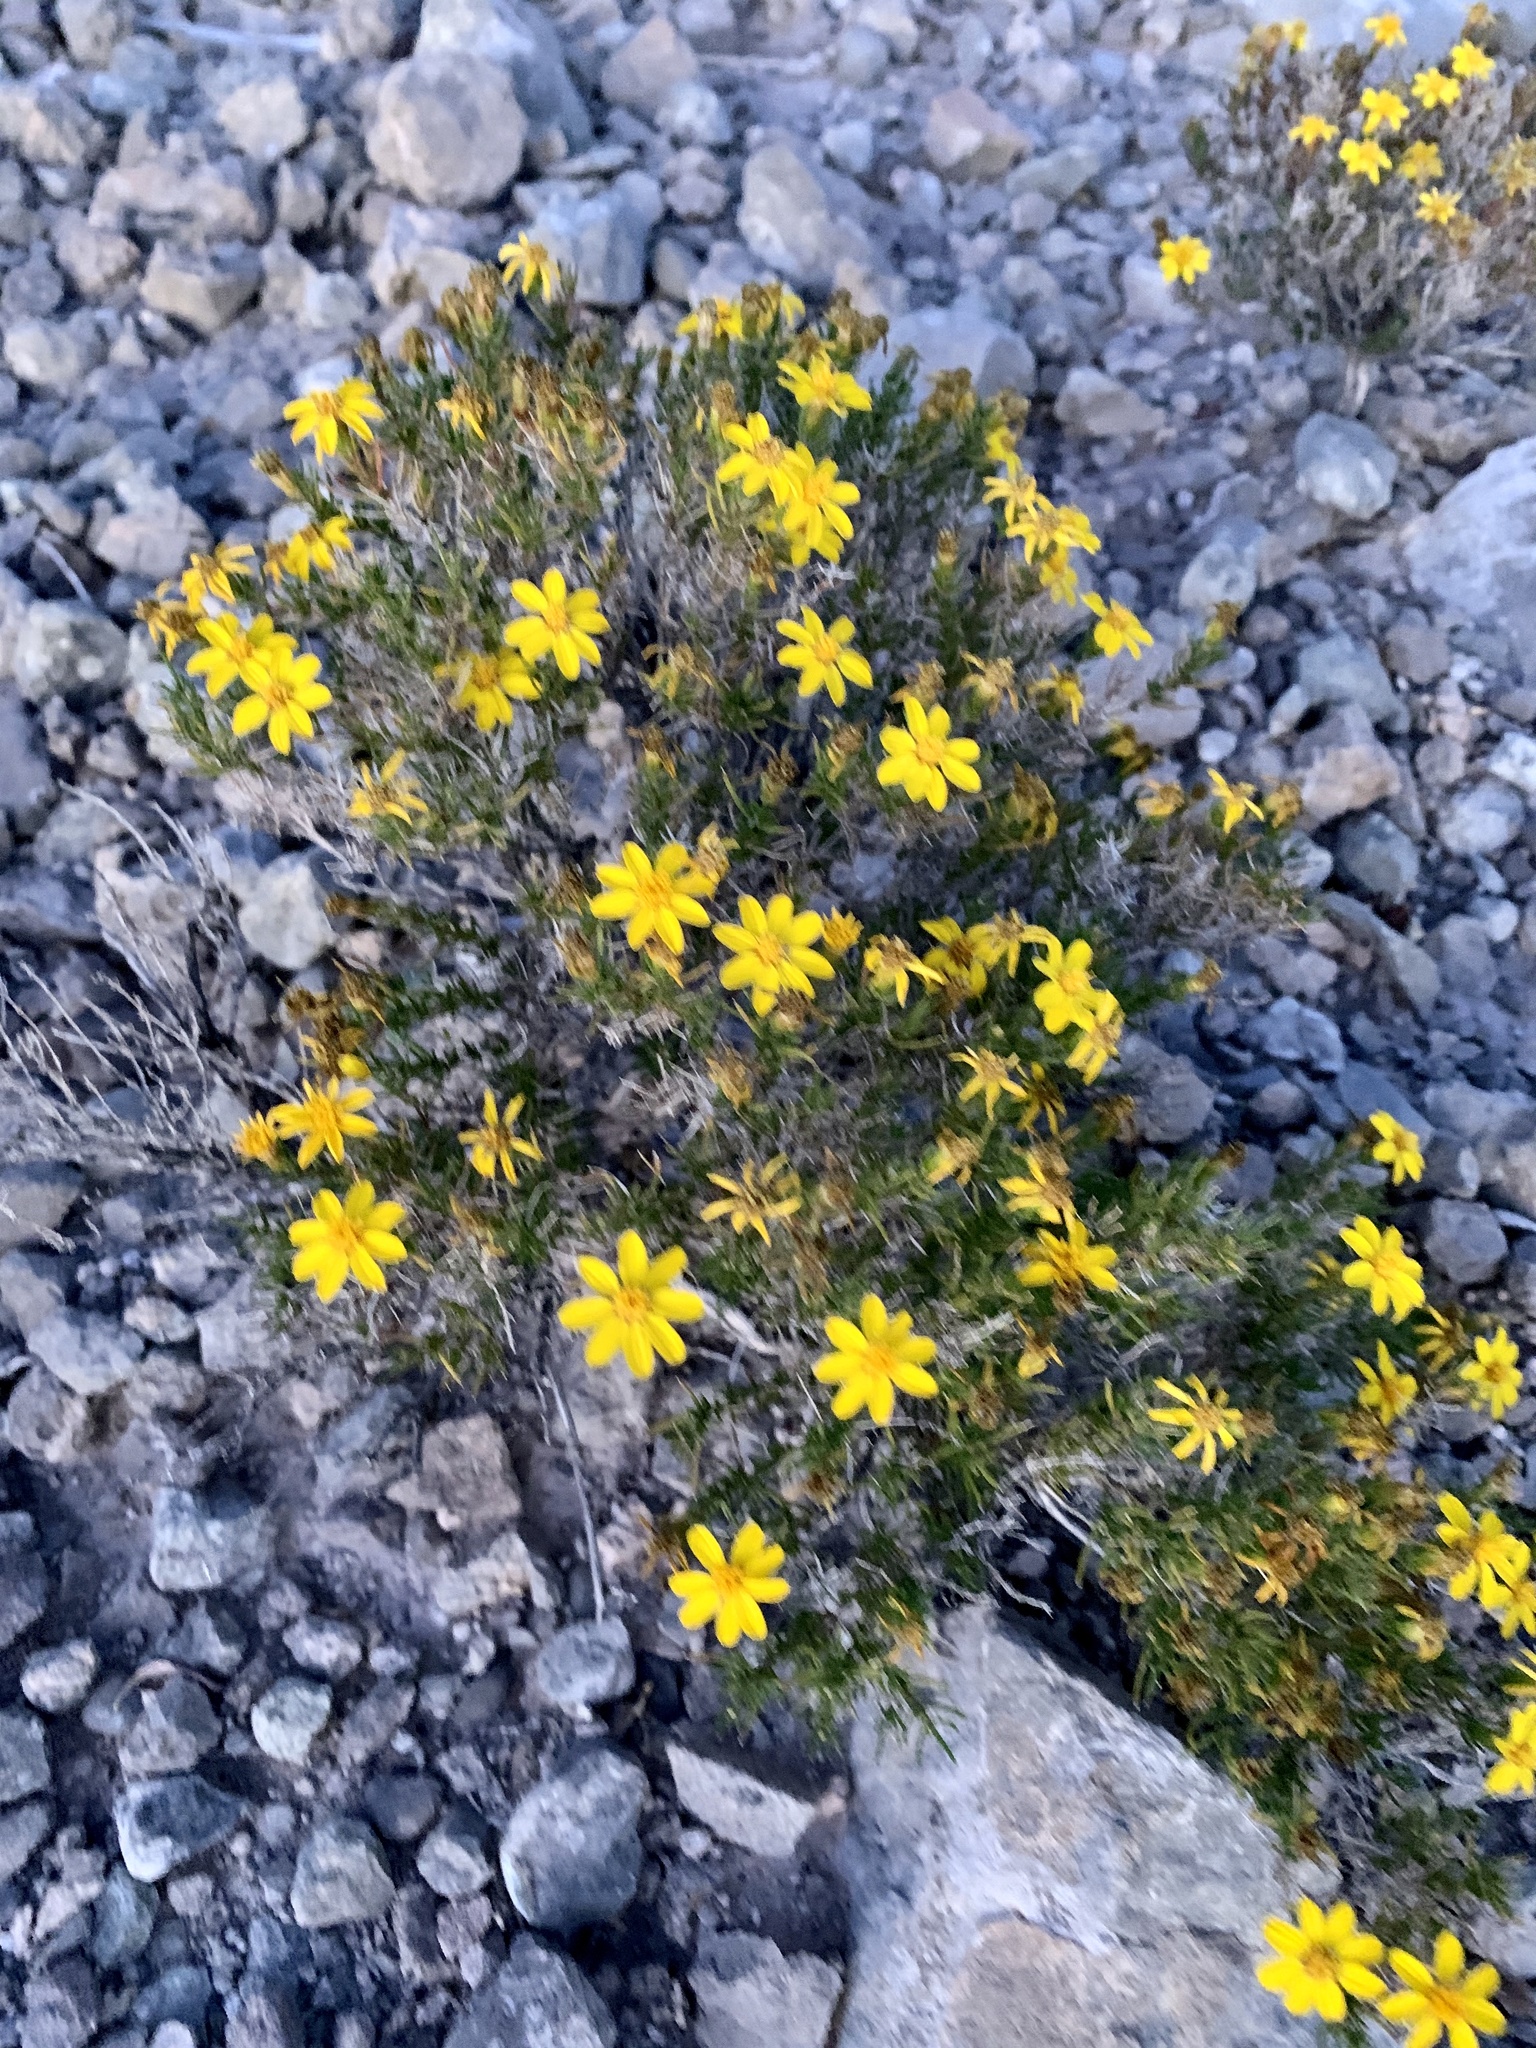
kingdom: Plantae
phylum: Tracheophyta
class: Magnoliopsida
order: Asterales
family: Asteraceae
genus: Thymophylla
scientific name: Thymophylla acerosa
